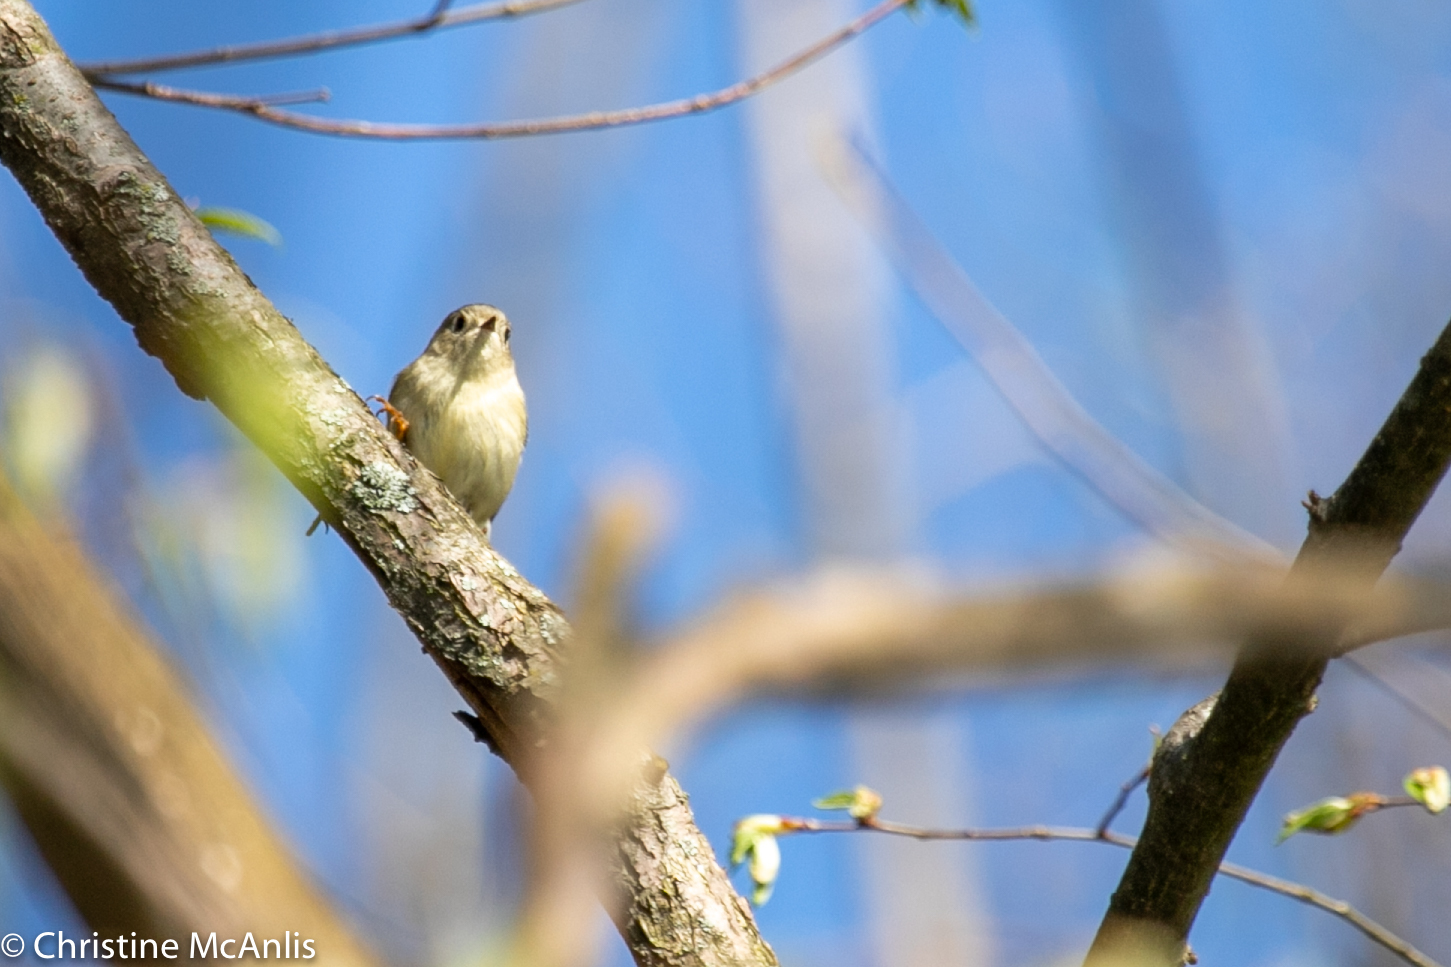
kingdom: Animalia
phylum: Chordata
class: Aves
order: Passeriformes
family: Regulidae
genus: Regulus
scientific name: Regulus calendula
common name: Ruby-crowned kinglet
